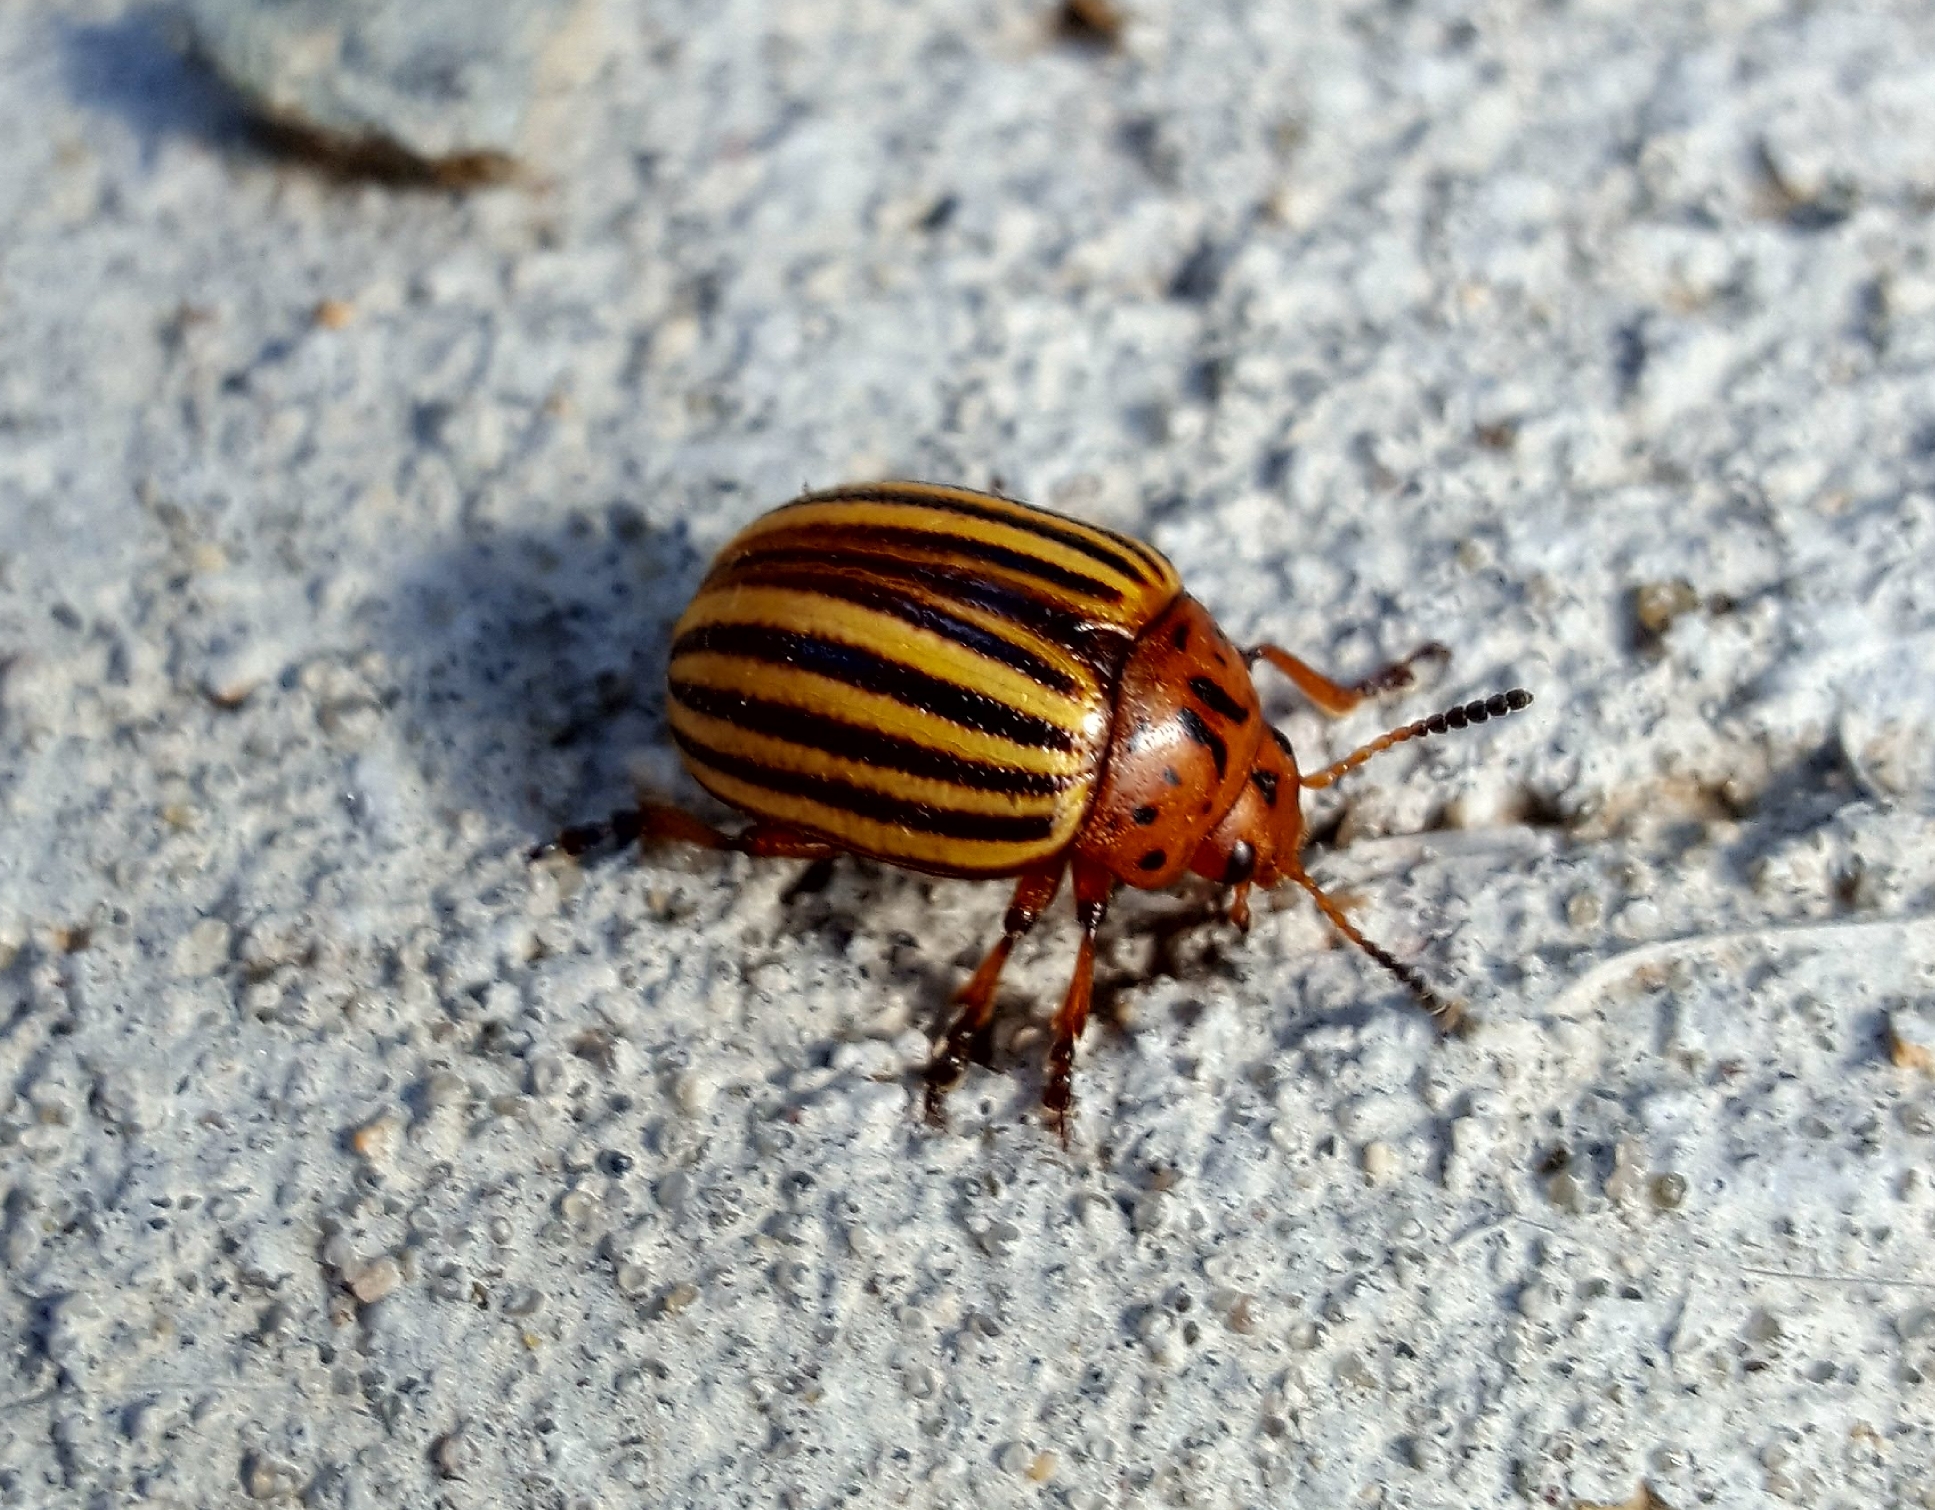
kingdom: Animalia
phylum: Arthropoda
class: Insecta
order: Coleoptera
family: Chrysomelidae
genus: Leptinotarsa
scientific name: Leptinotarsa decemlineata
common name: Colorado potato beetle
